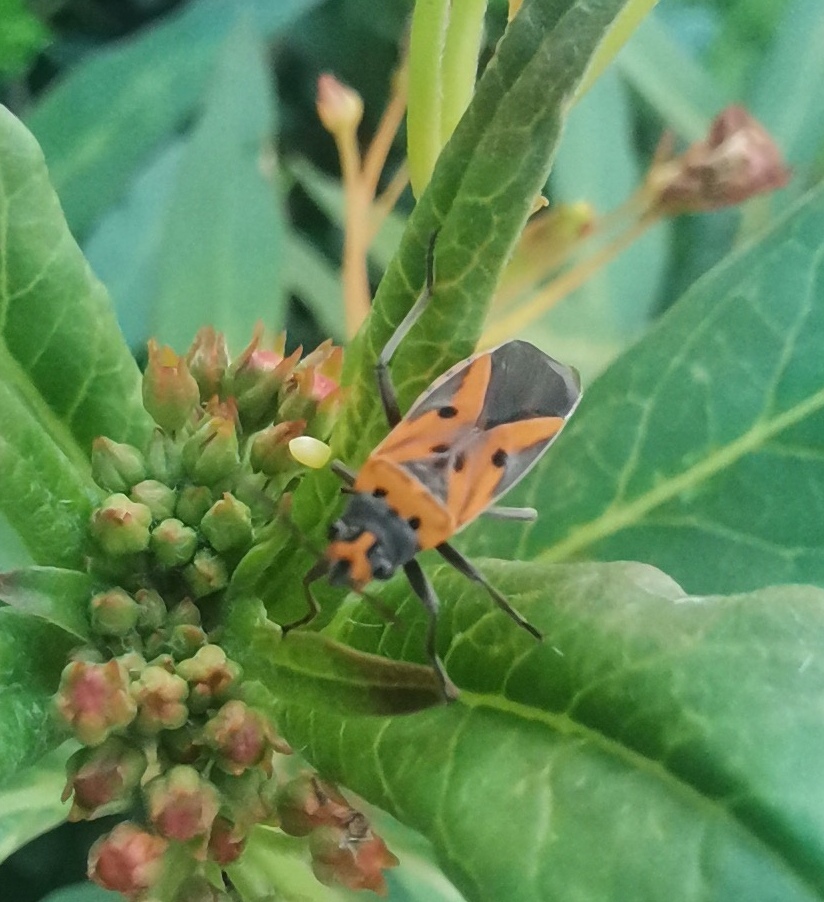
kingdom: Plantae
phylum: Tracheophyta
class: Magnoliopsida
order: Gentianales
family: Apocynaceae
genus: Asclepias
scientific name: Asclepias curassavica
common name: Bloodflower
